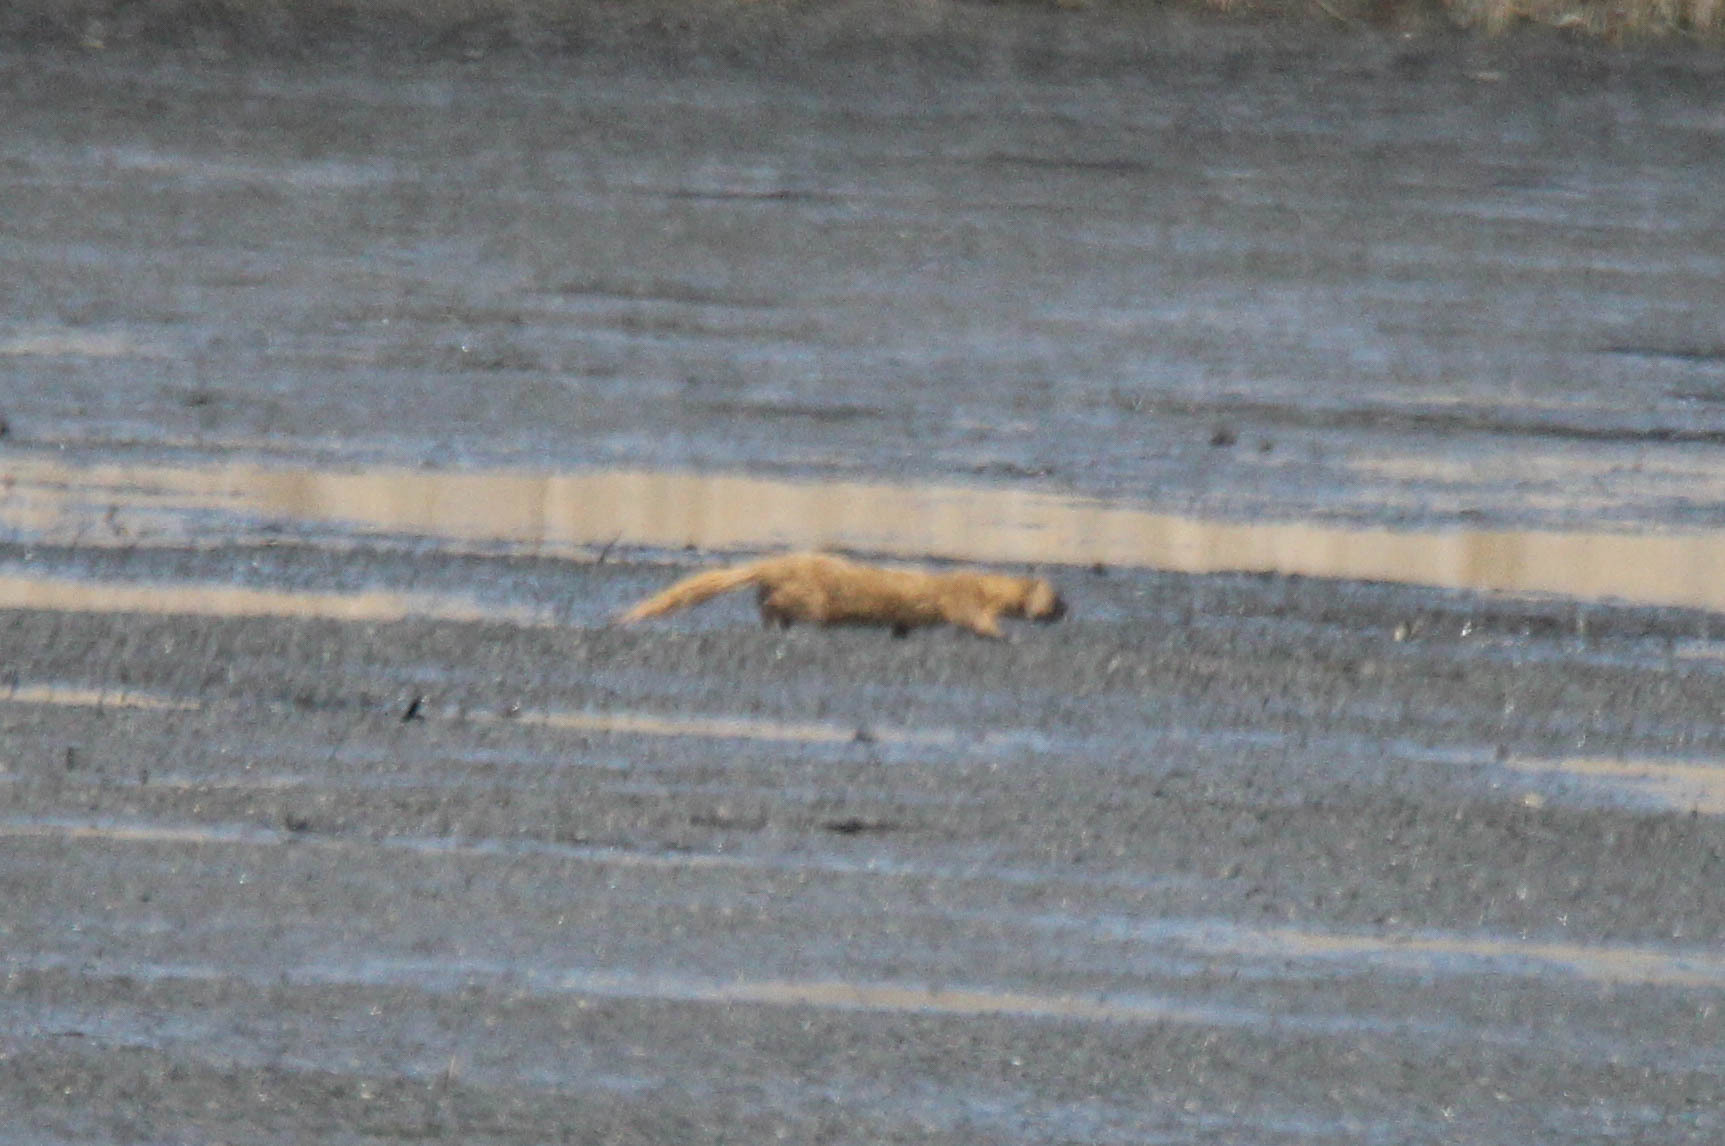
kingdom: Animalia
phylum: Chordata
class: Mammalia
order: Carnivora
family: Mustelidae
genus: Mustela
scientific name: Mustela sibirica
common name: Siberian weasel
